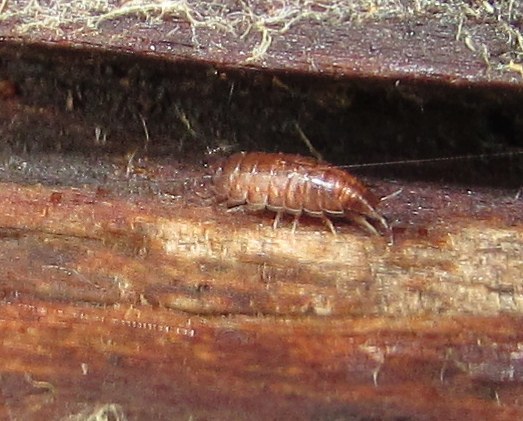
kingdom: Animalia
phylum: Arthropoda
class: Malacostraca
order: Isopoda
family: Trichoniscidae
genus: Trichoniscus
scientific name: Trichoniscus
